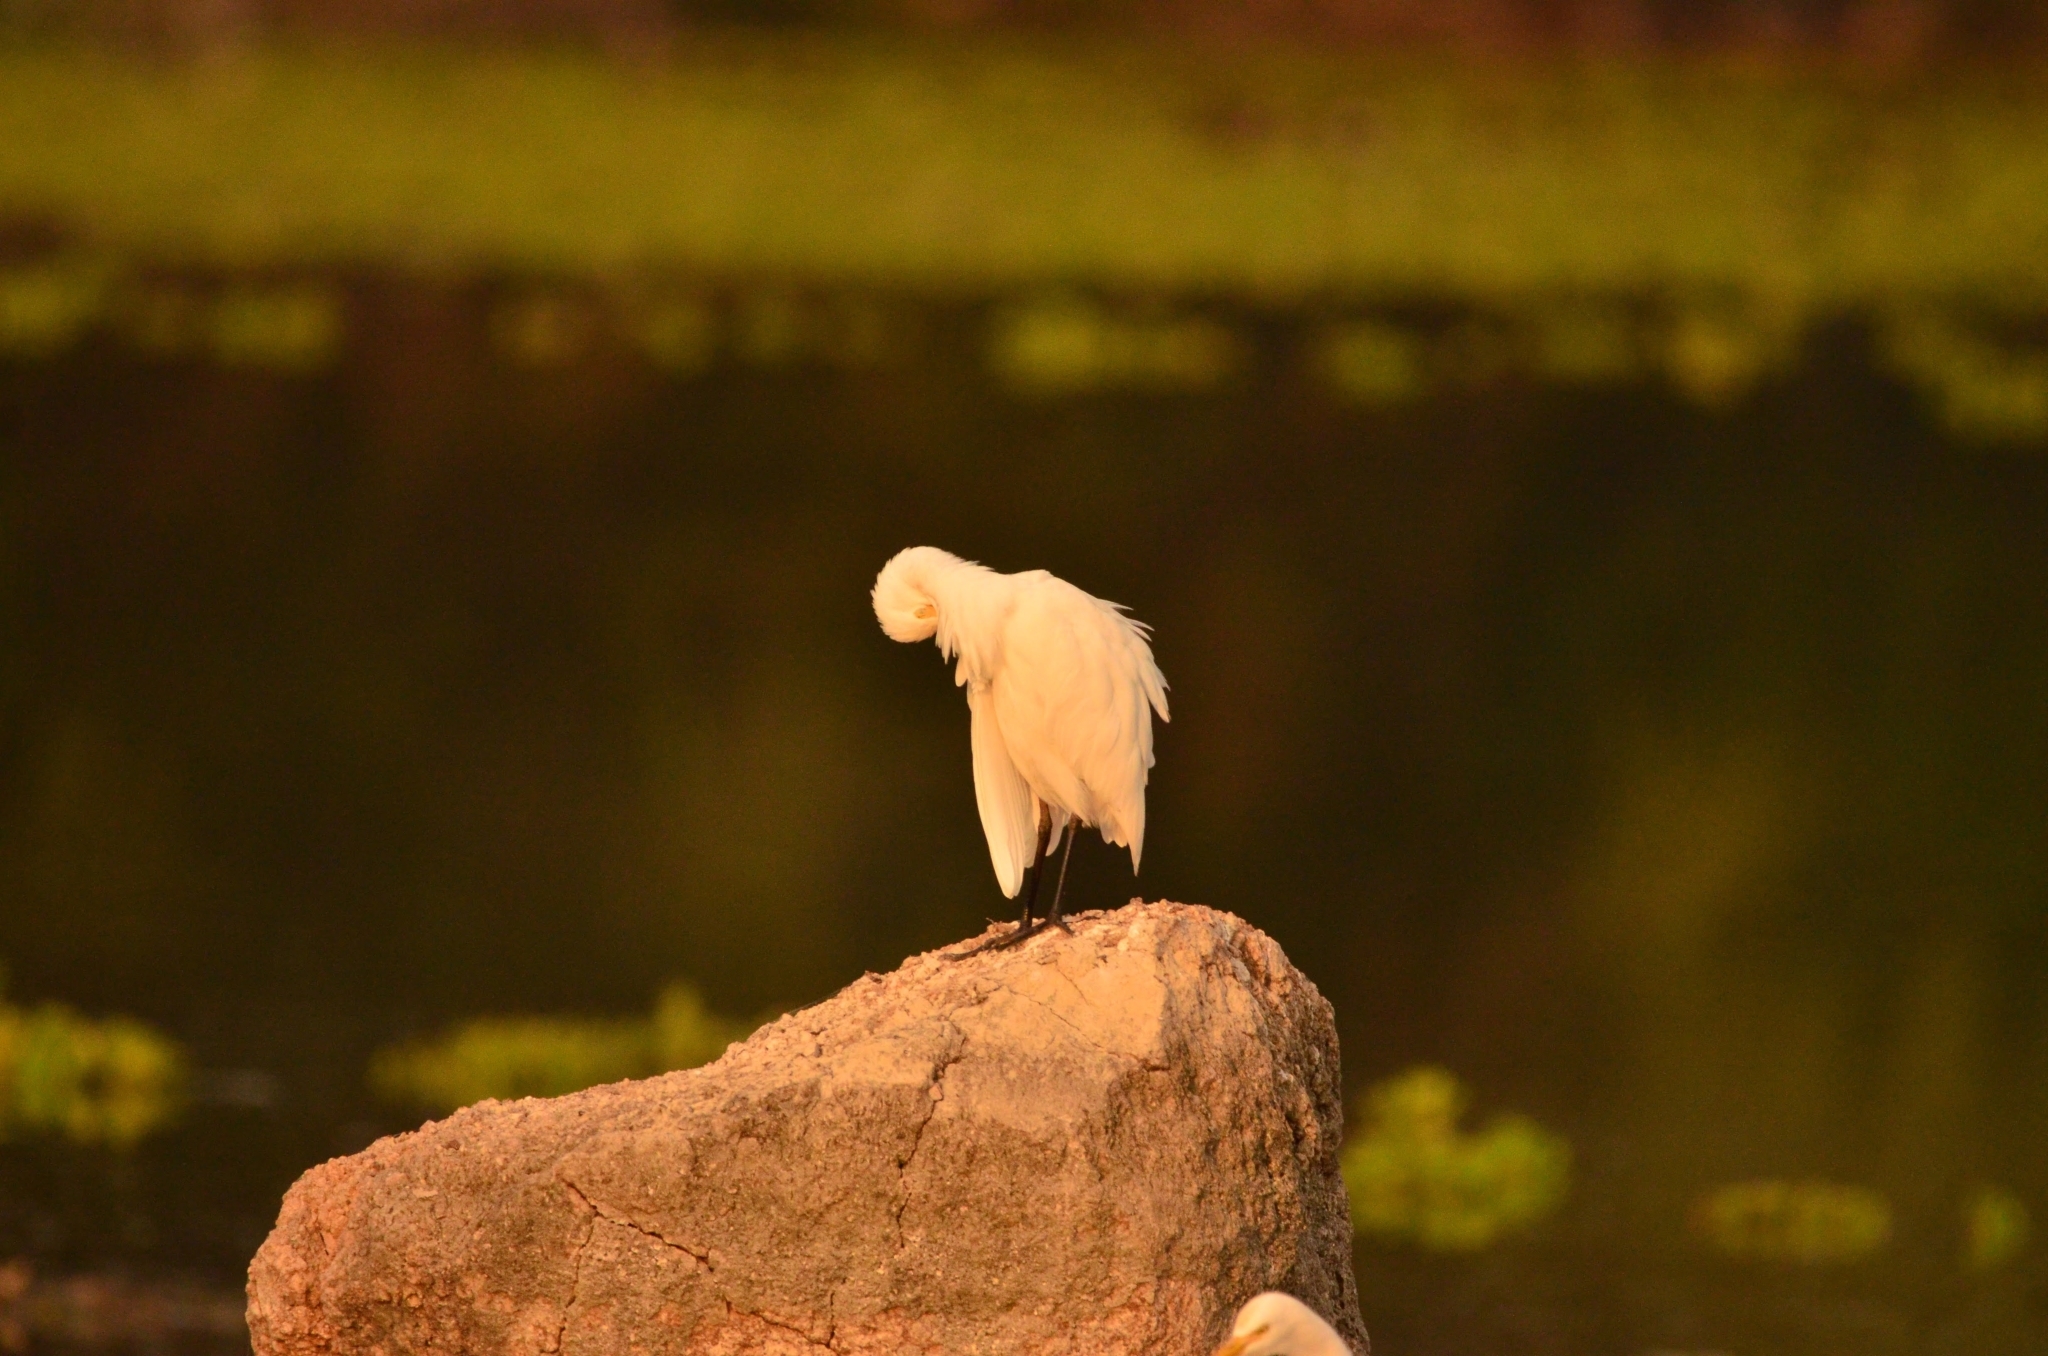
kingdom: Animalia
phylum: Chordata
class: Aves
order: Pelecaniformes
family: Ardeidae
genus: Bubulcus
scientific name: Bubulcus coromandus
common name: Eastern cattle egret
